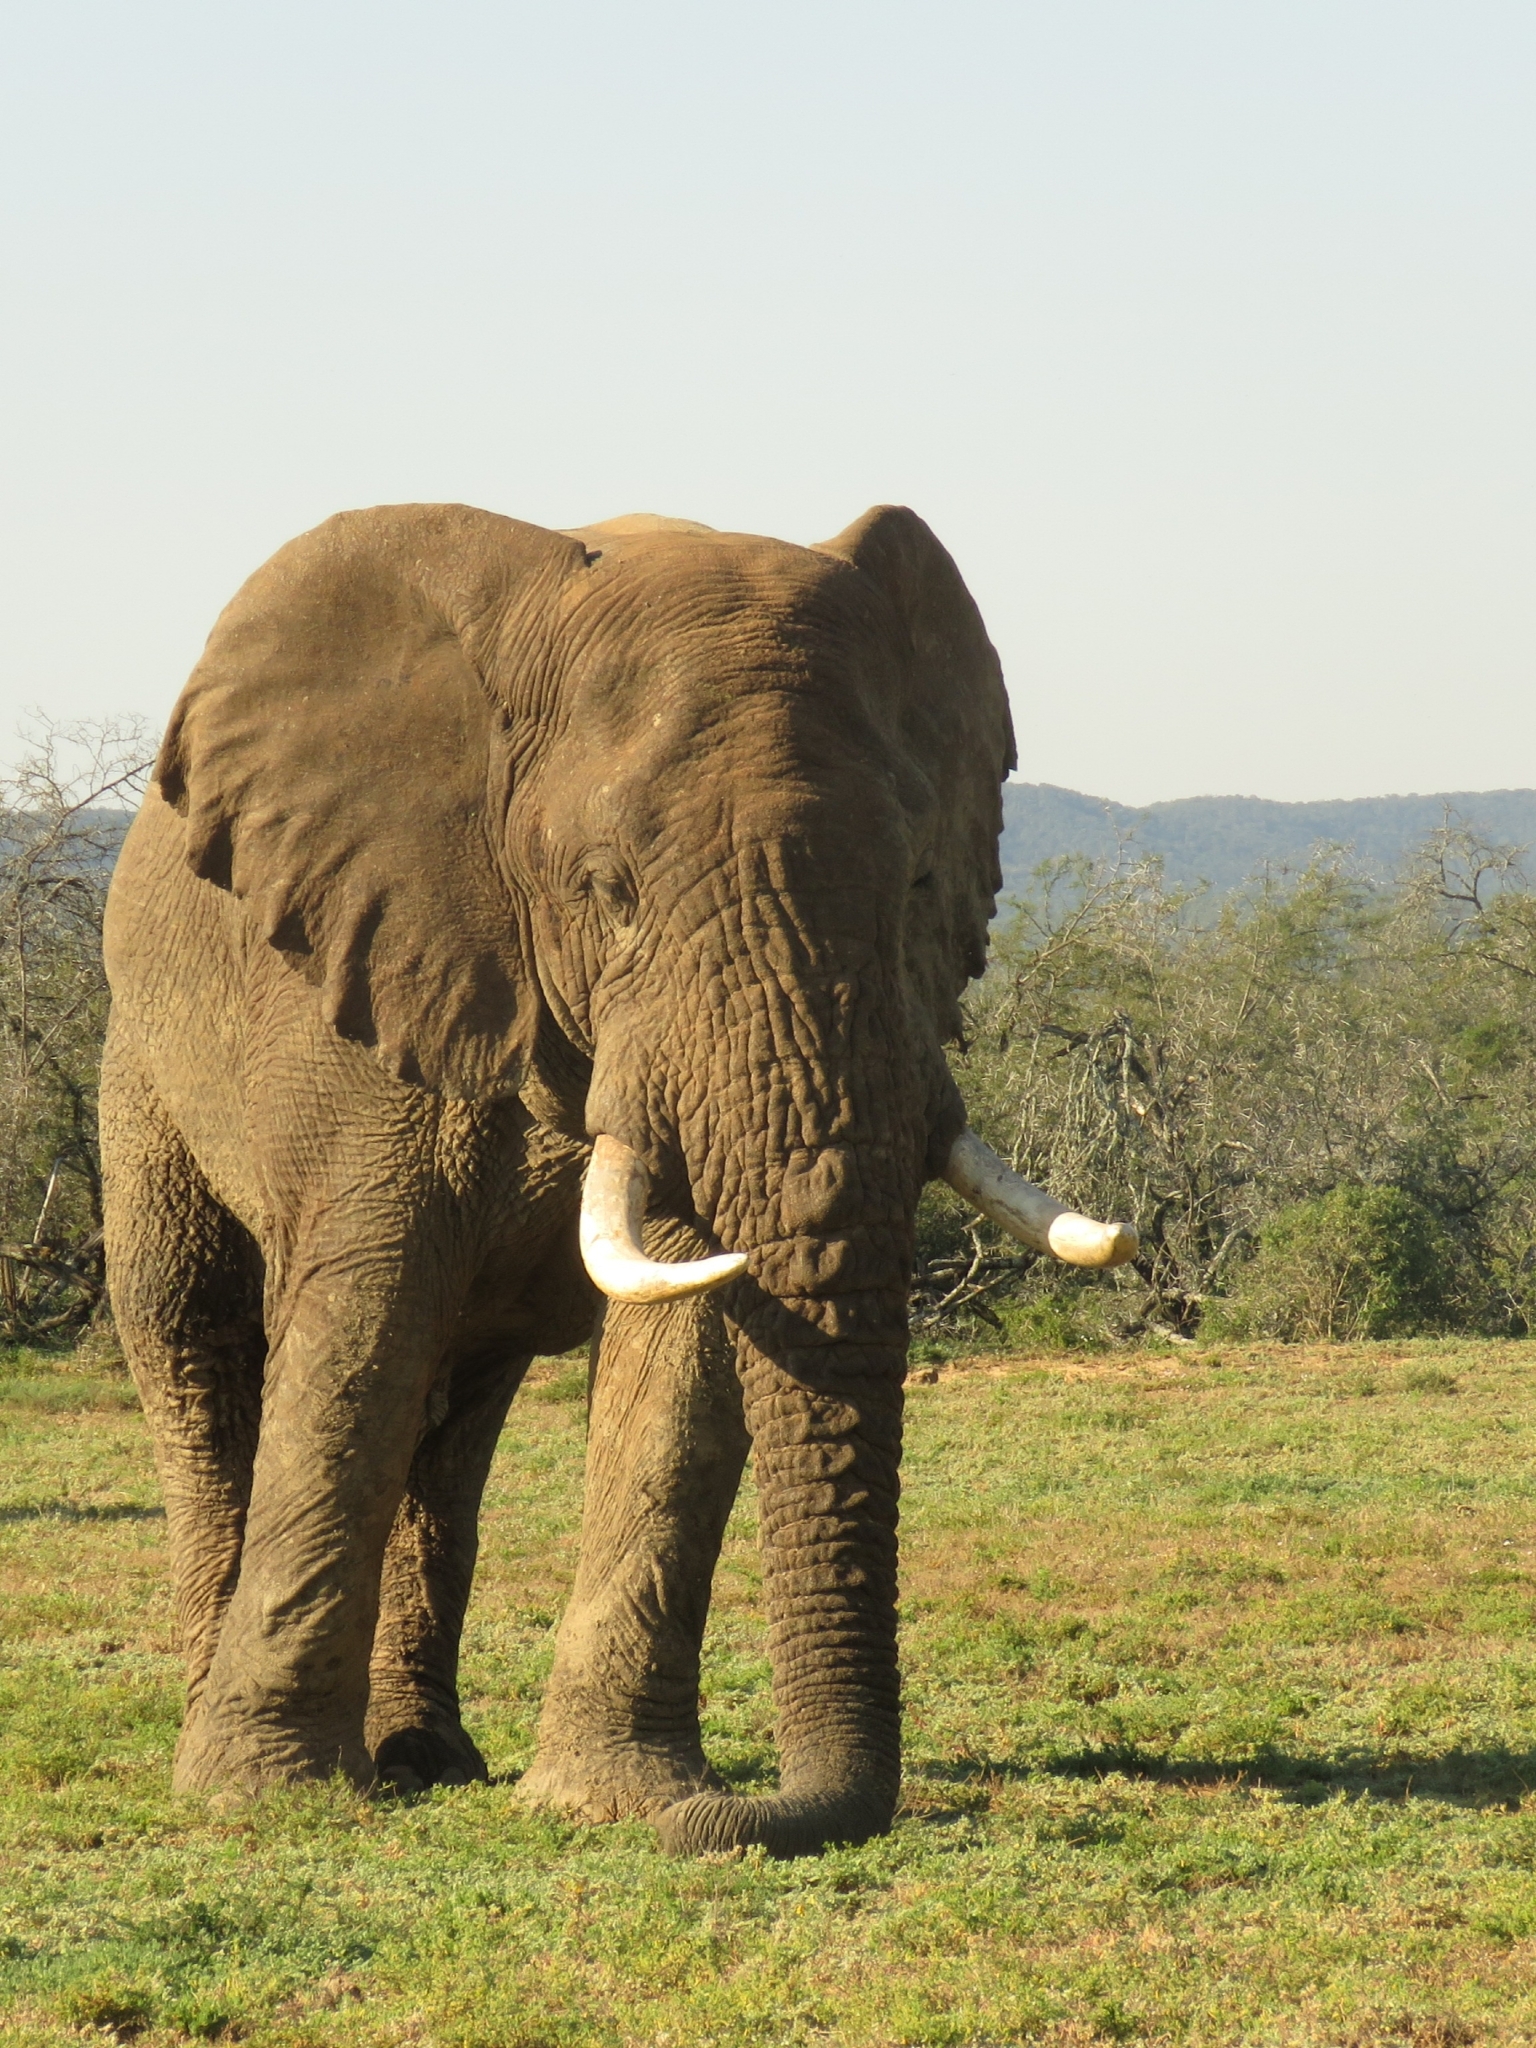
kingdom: Animalia
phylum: Chordata
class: Mammalia
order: Proboscidea
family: Elephantidae
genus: Loxodonta
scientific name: Loxodonta africana
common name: African elephant
